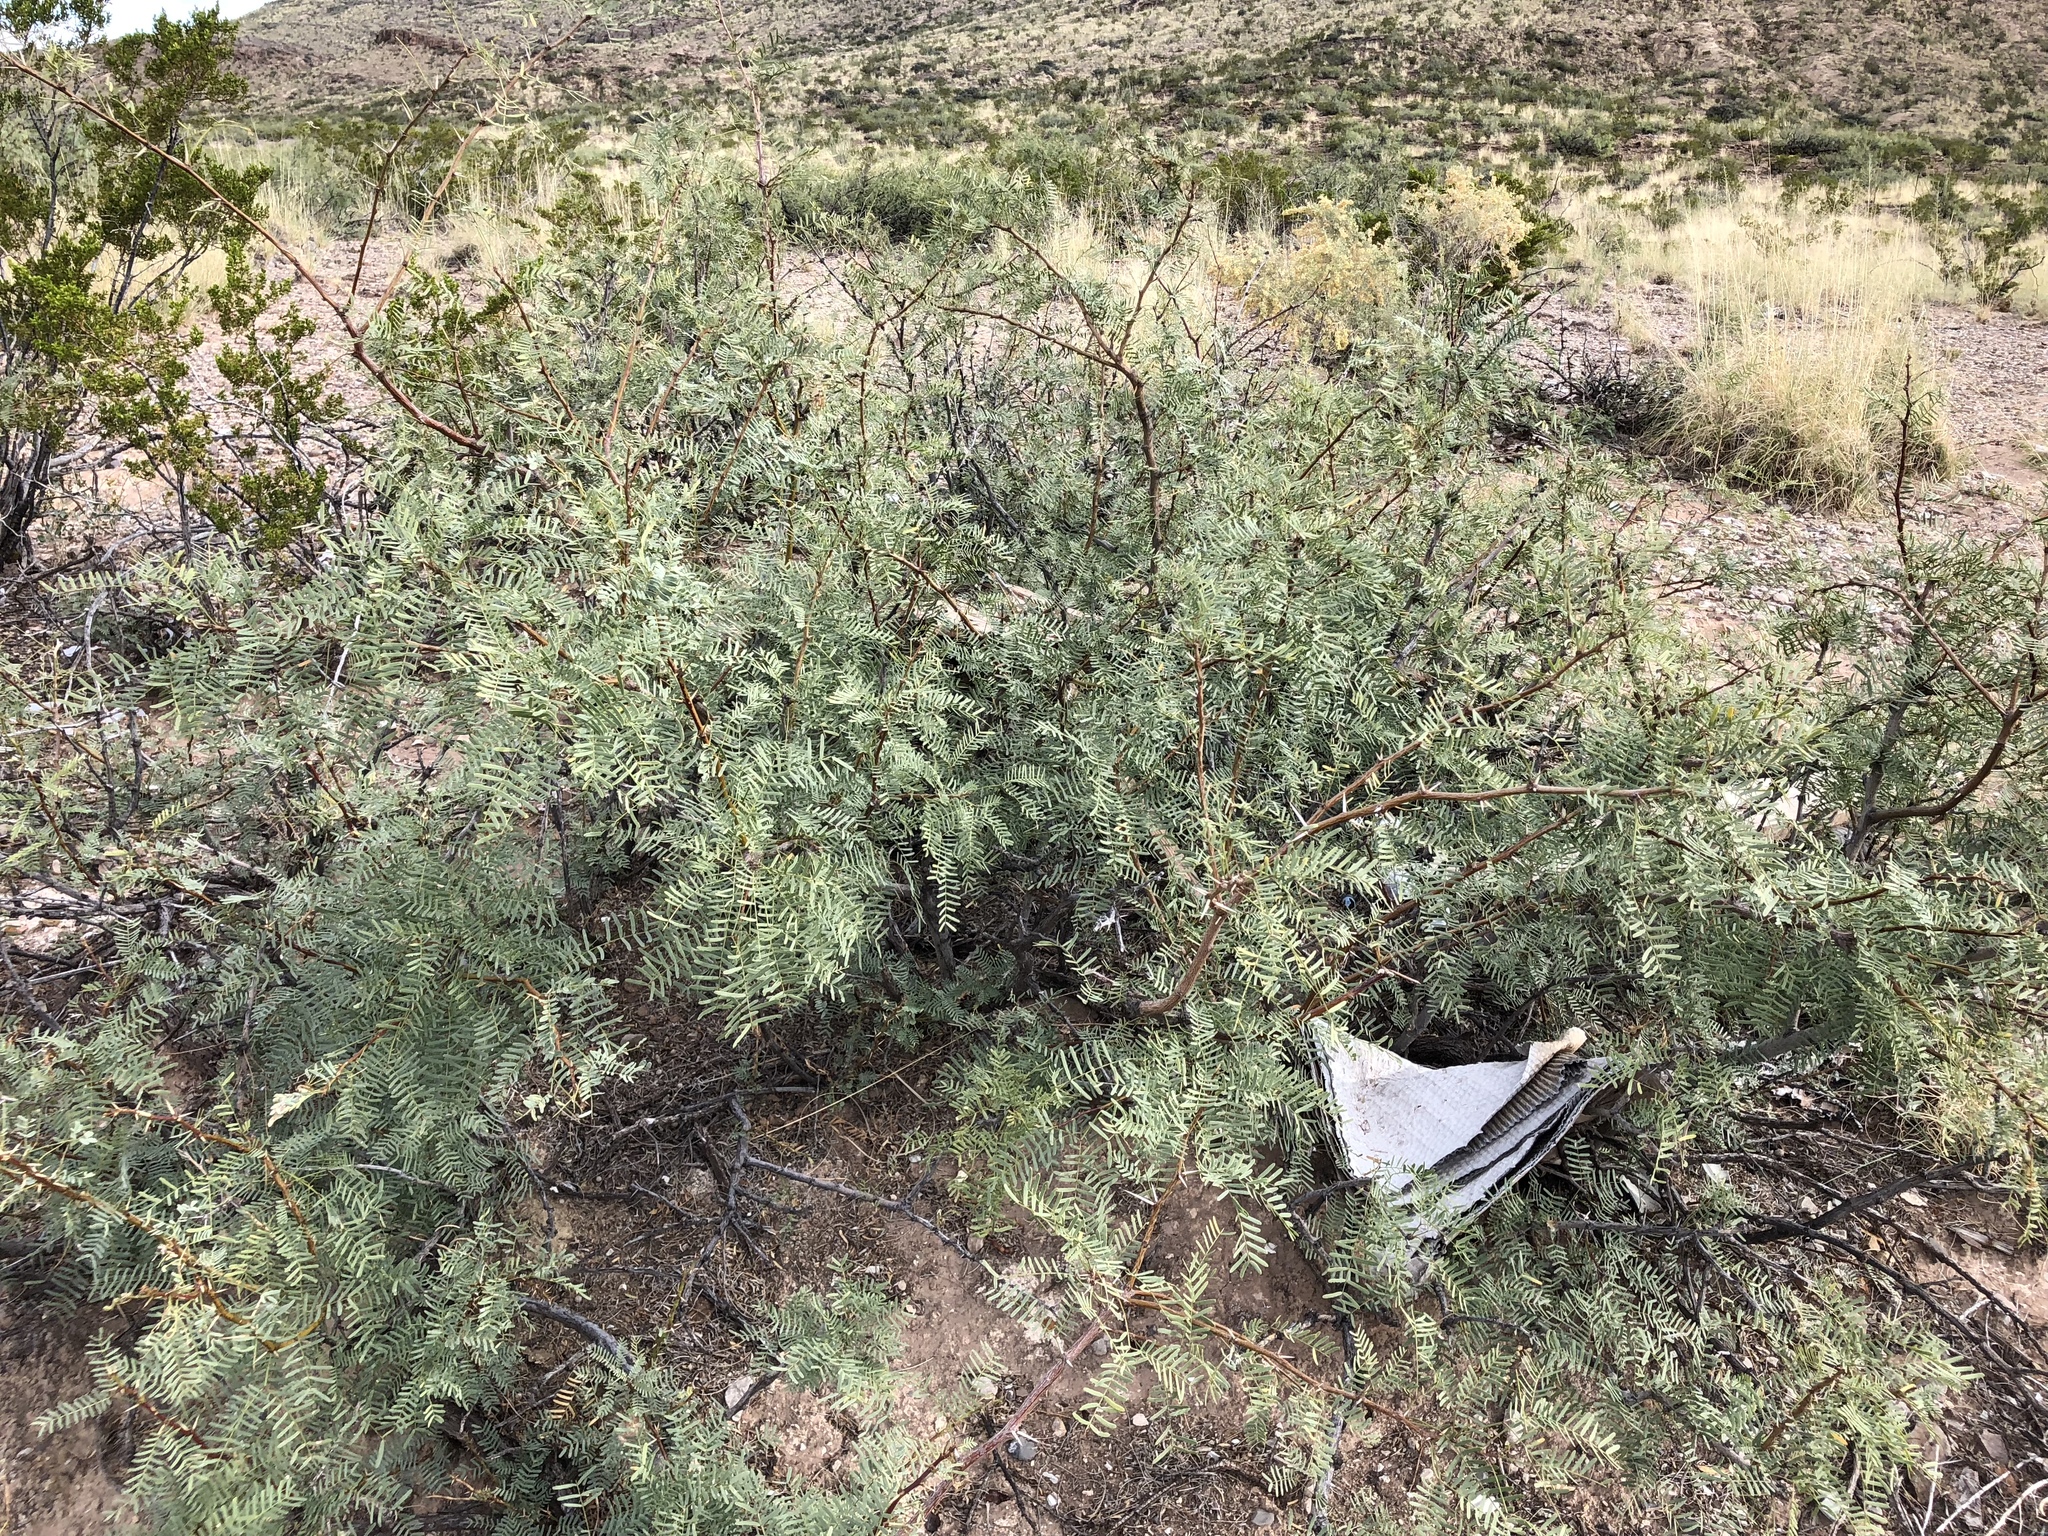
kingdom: Plantae
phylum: Tracheophyta
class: Magnoliopsida
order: Fabales
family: Fabaceae
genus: Prosopis
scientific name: Prosopis glandulosa
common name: Honey mesquite
